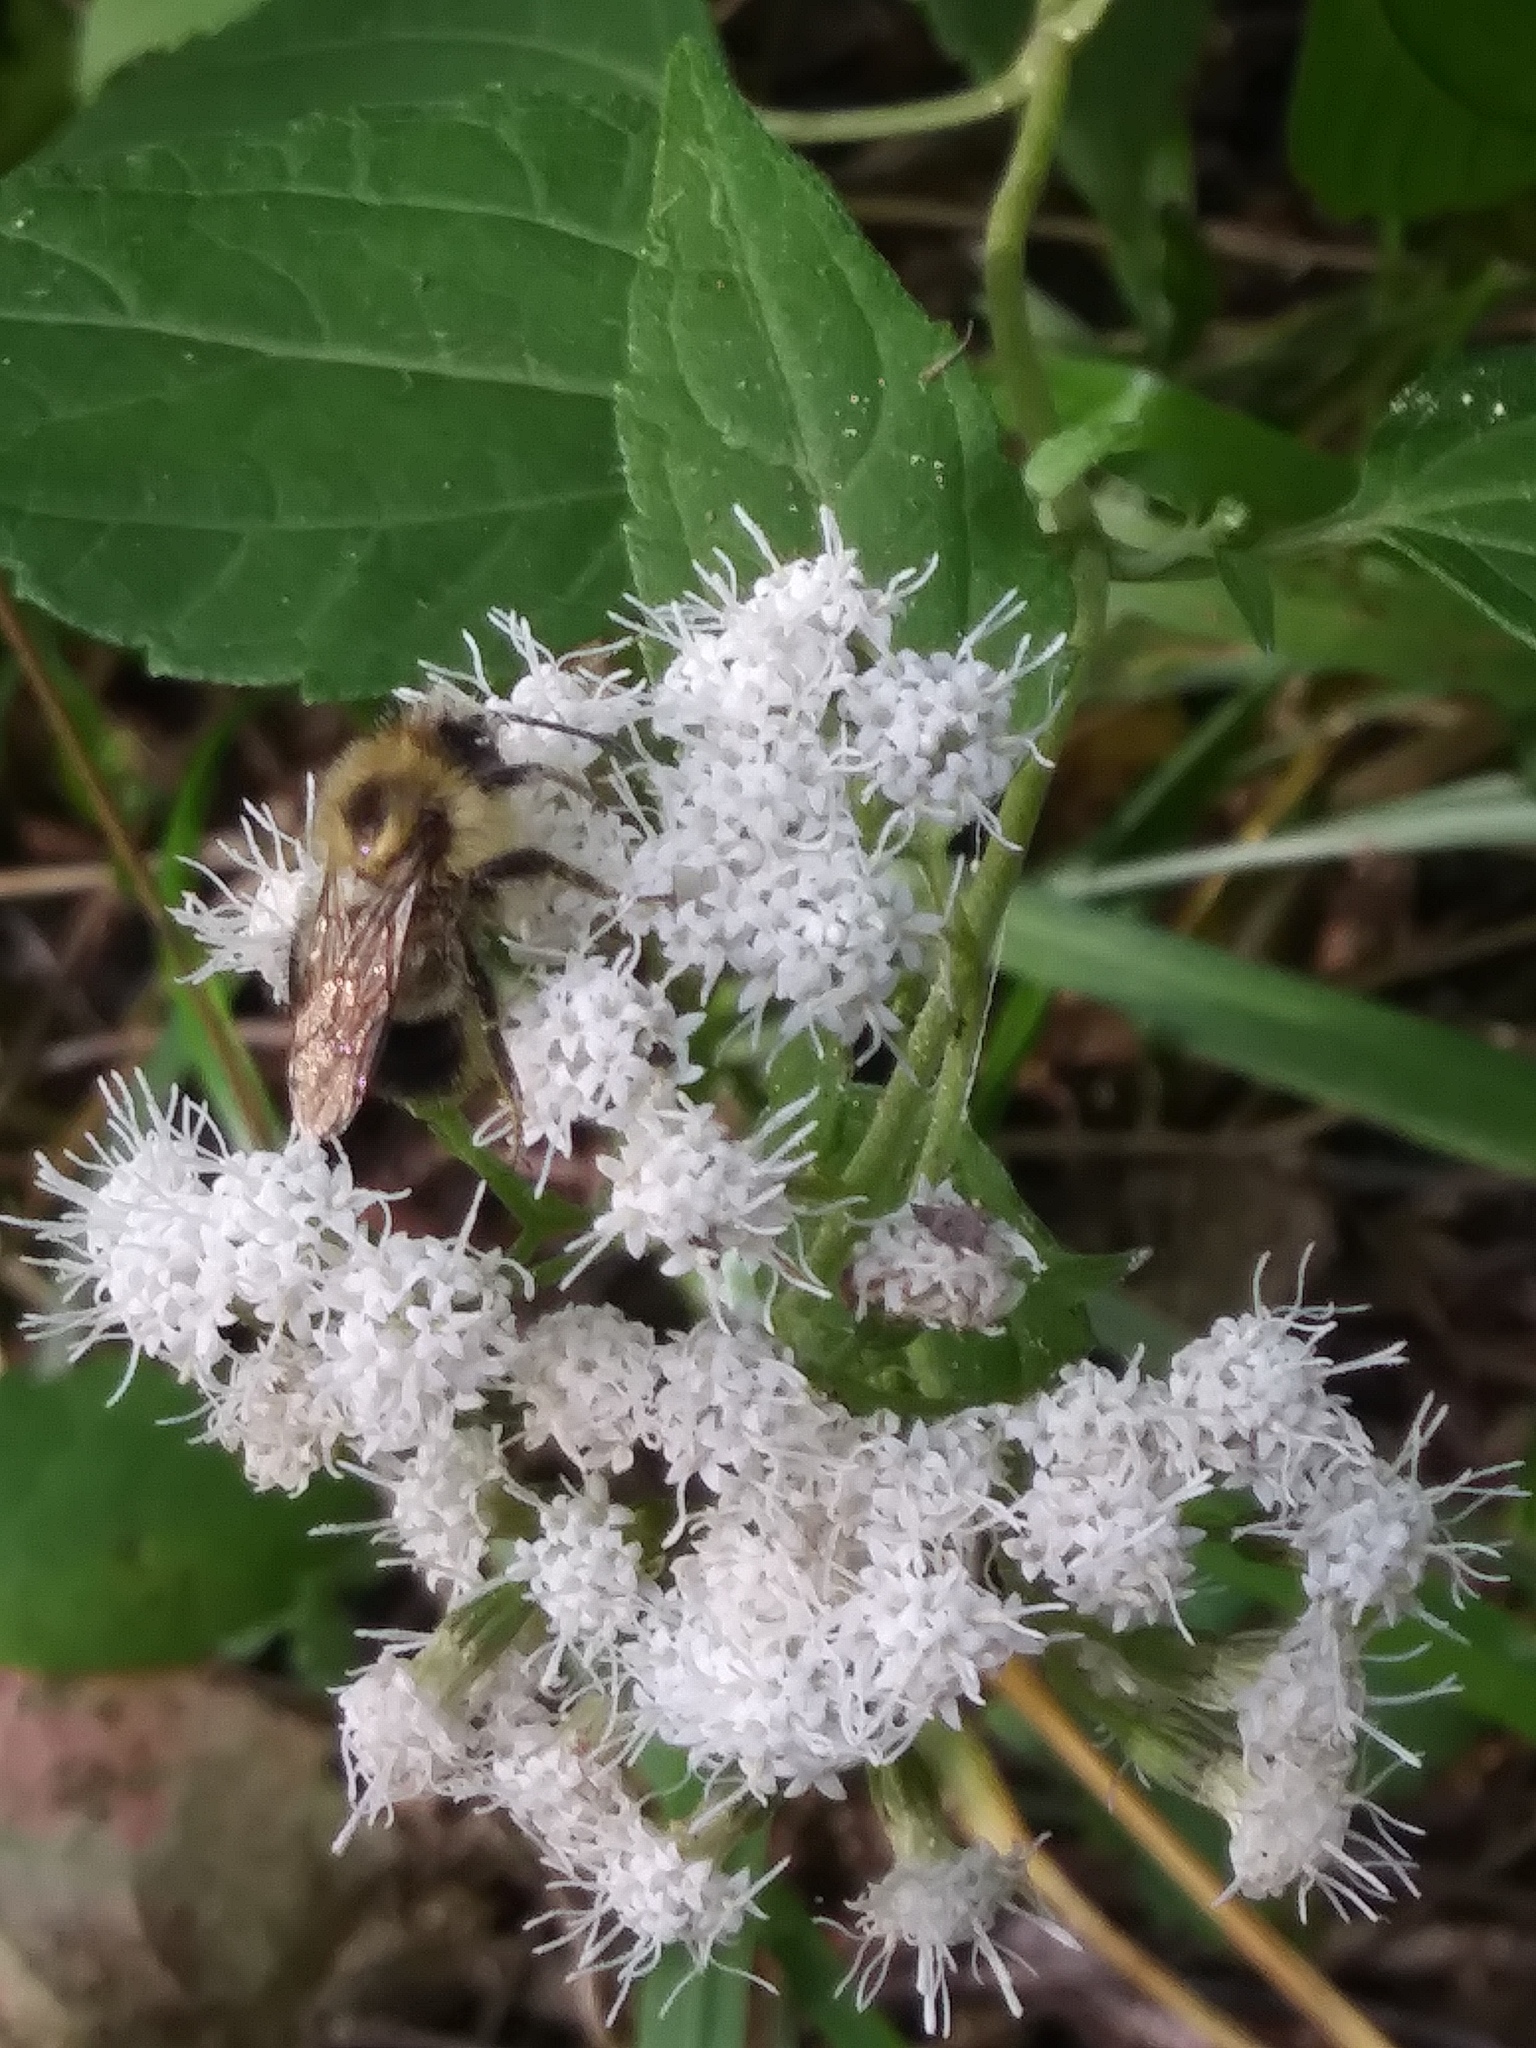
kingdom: Animalia
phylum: Arthropoda
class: Insecta
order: Hymenoptera
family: Apidae
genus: Pyrobombus
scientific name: Pyrobombus
